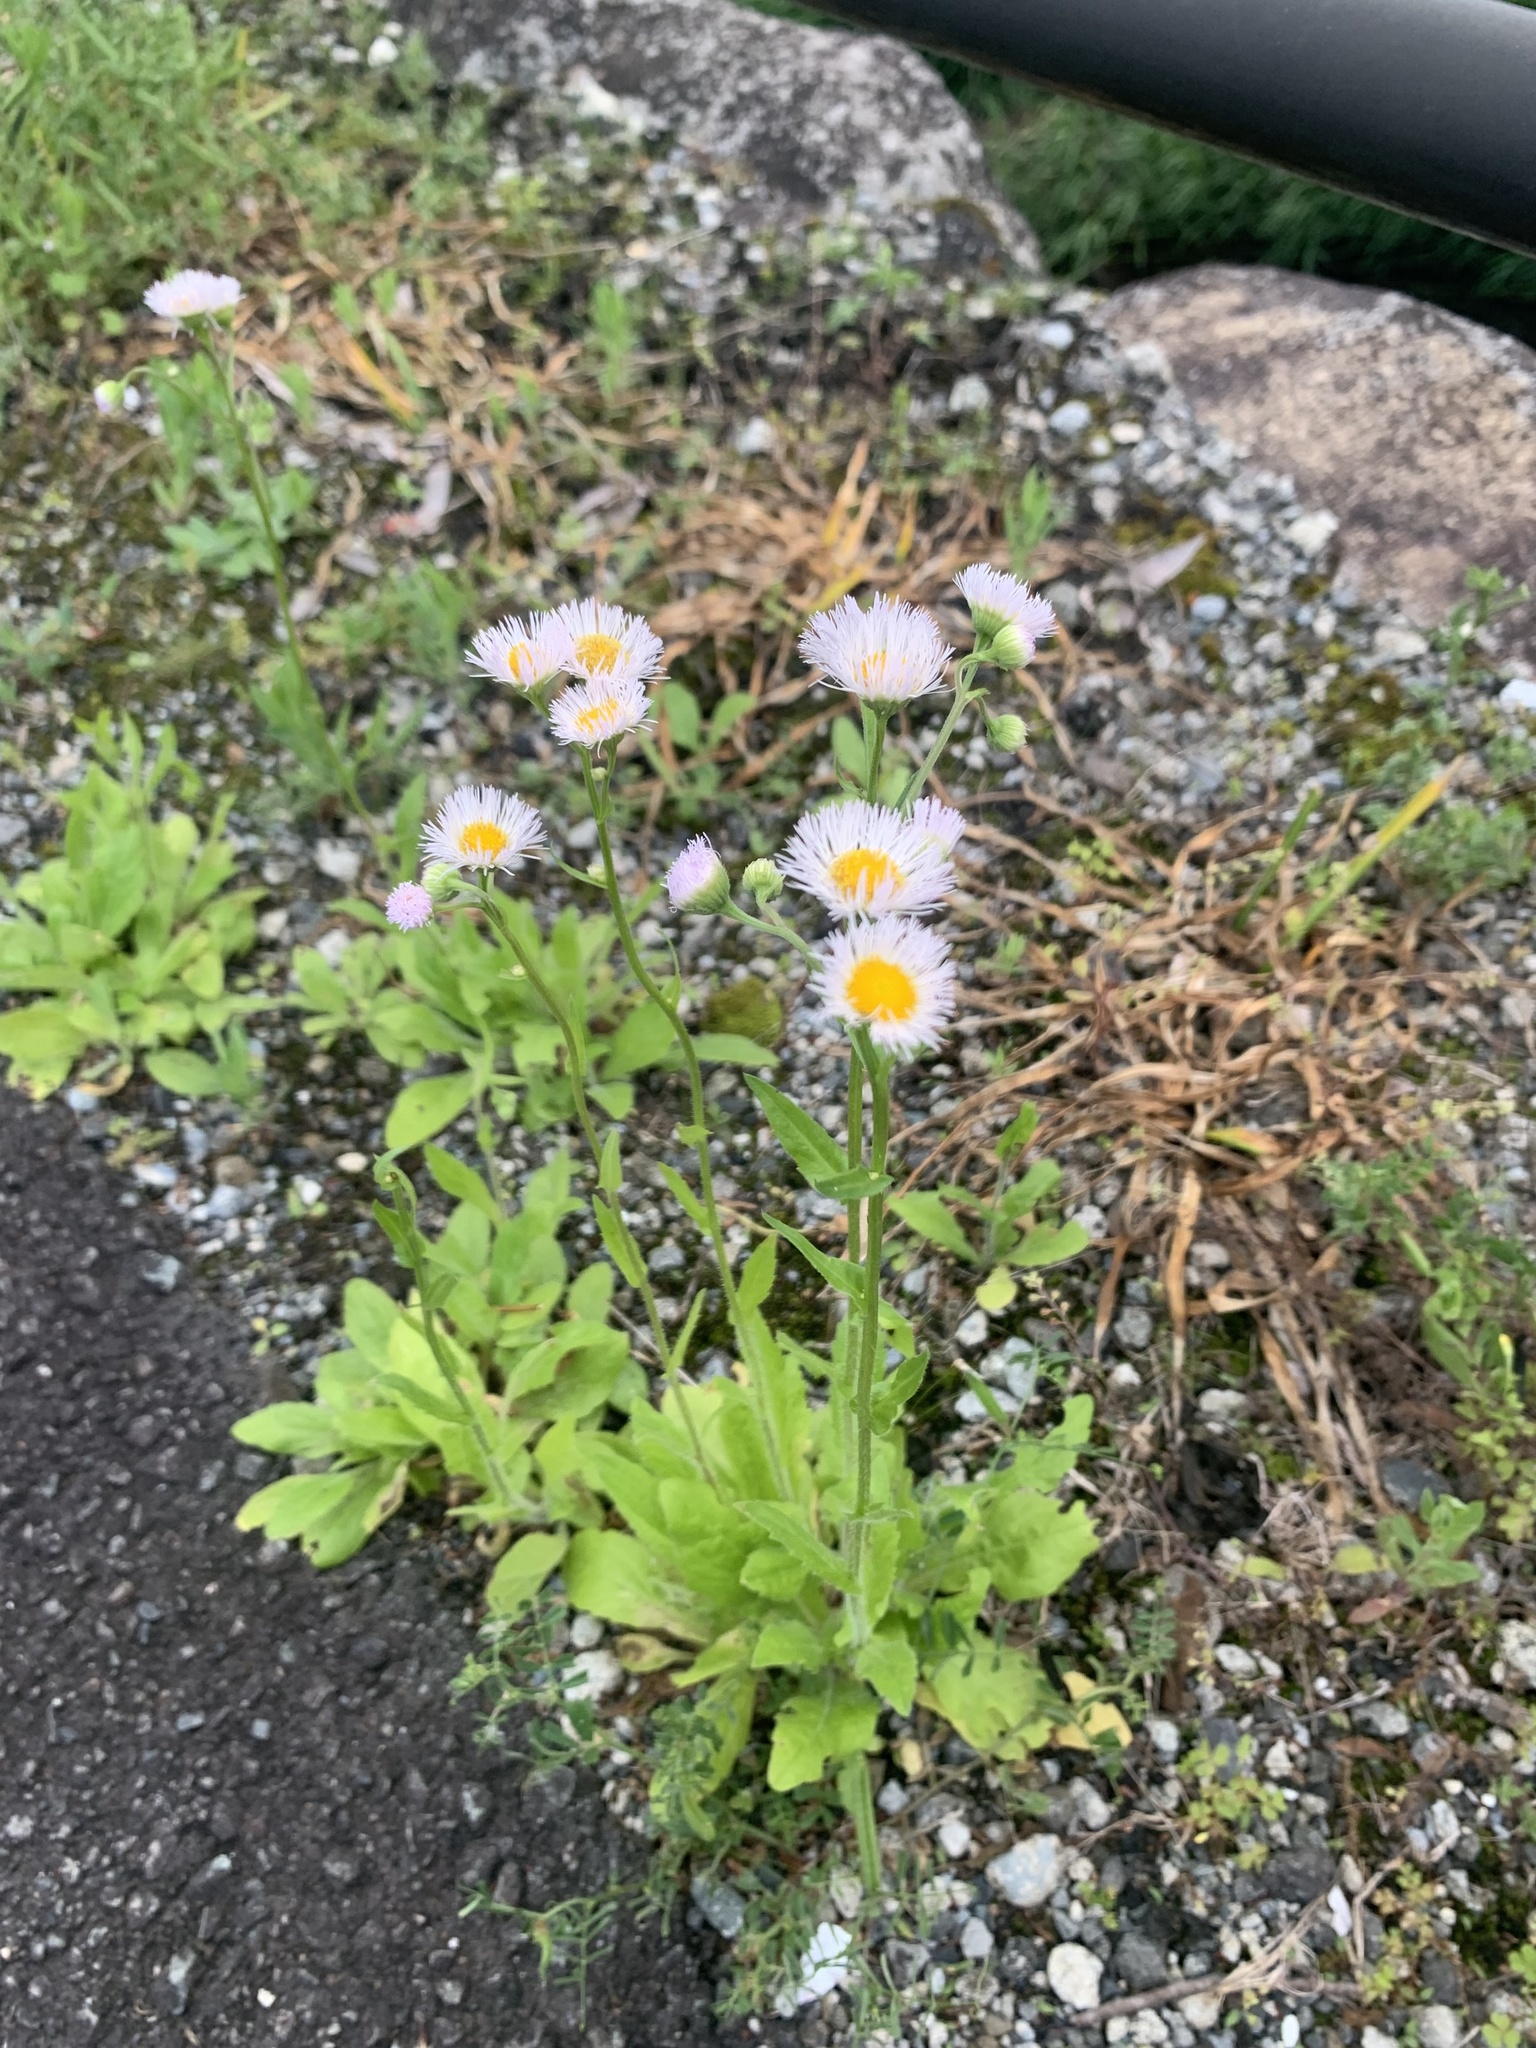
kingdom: Plantae
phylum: Tracheophyta
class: Magnoliopsida
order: Asterales
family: Asteraceae
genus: Erigeron
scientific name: Erigeron philadelphicus
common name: Robin's-plantain
